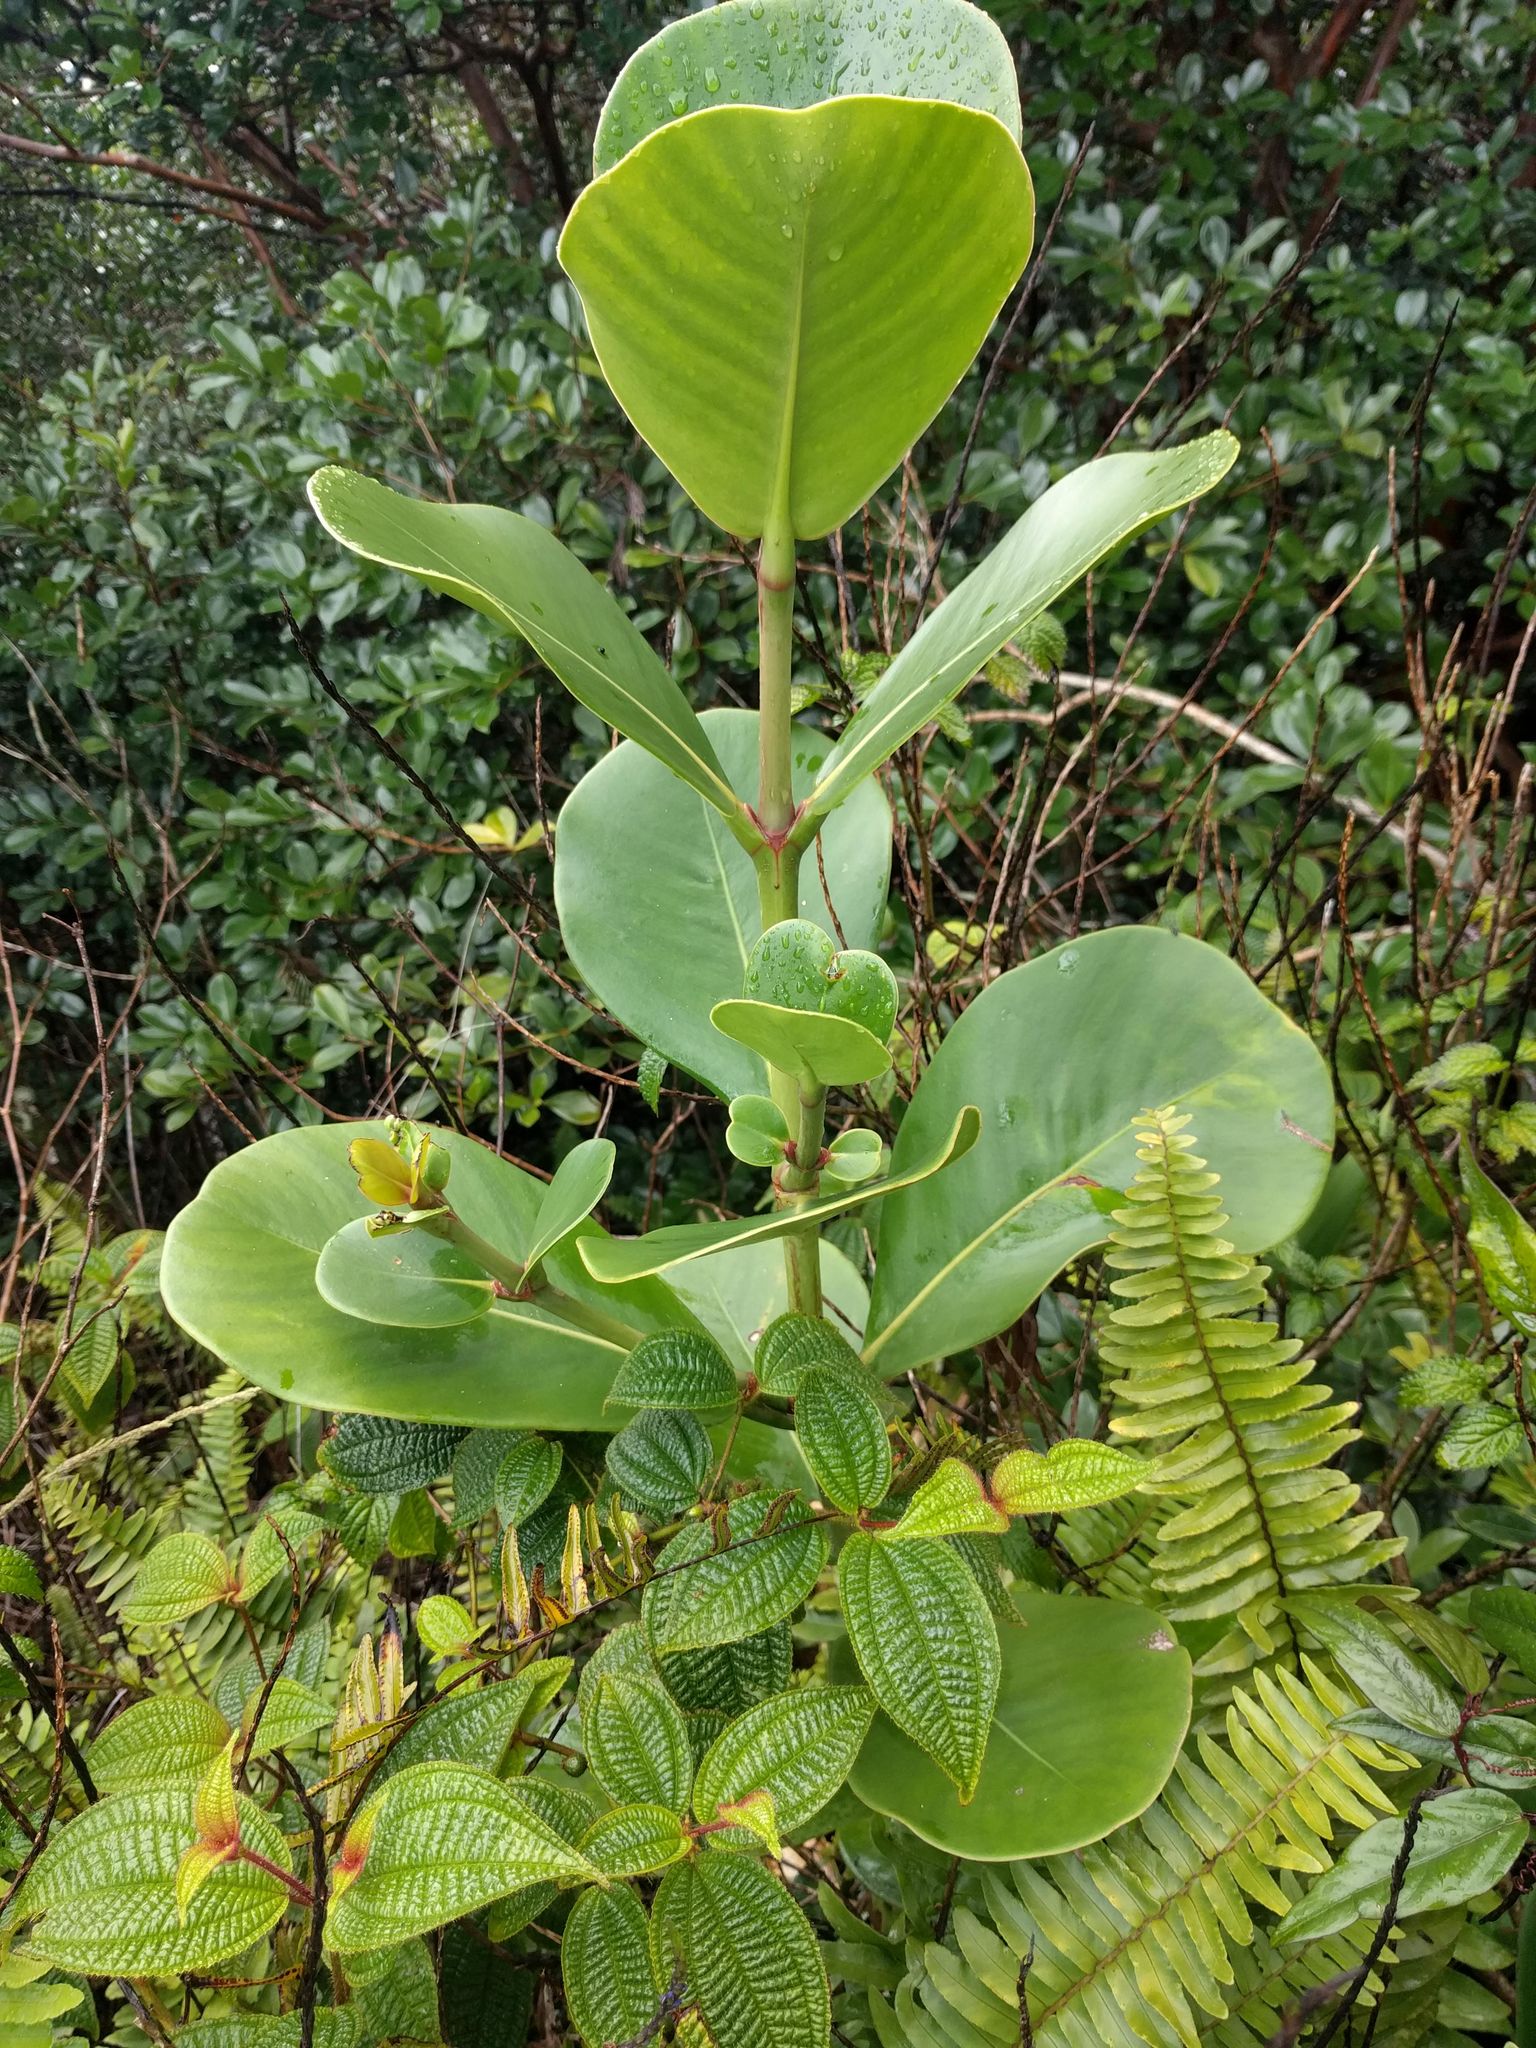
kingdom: Plantae
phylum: Tracheophyta
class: Magnoliopsida
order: Malpighiales
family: Clusiaceae
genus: Clusia
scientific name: Clusia rosea
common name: Scotch attorney
